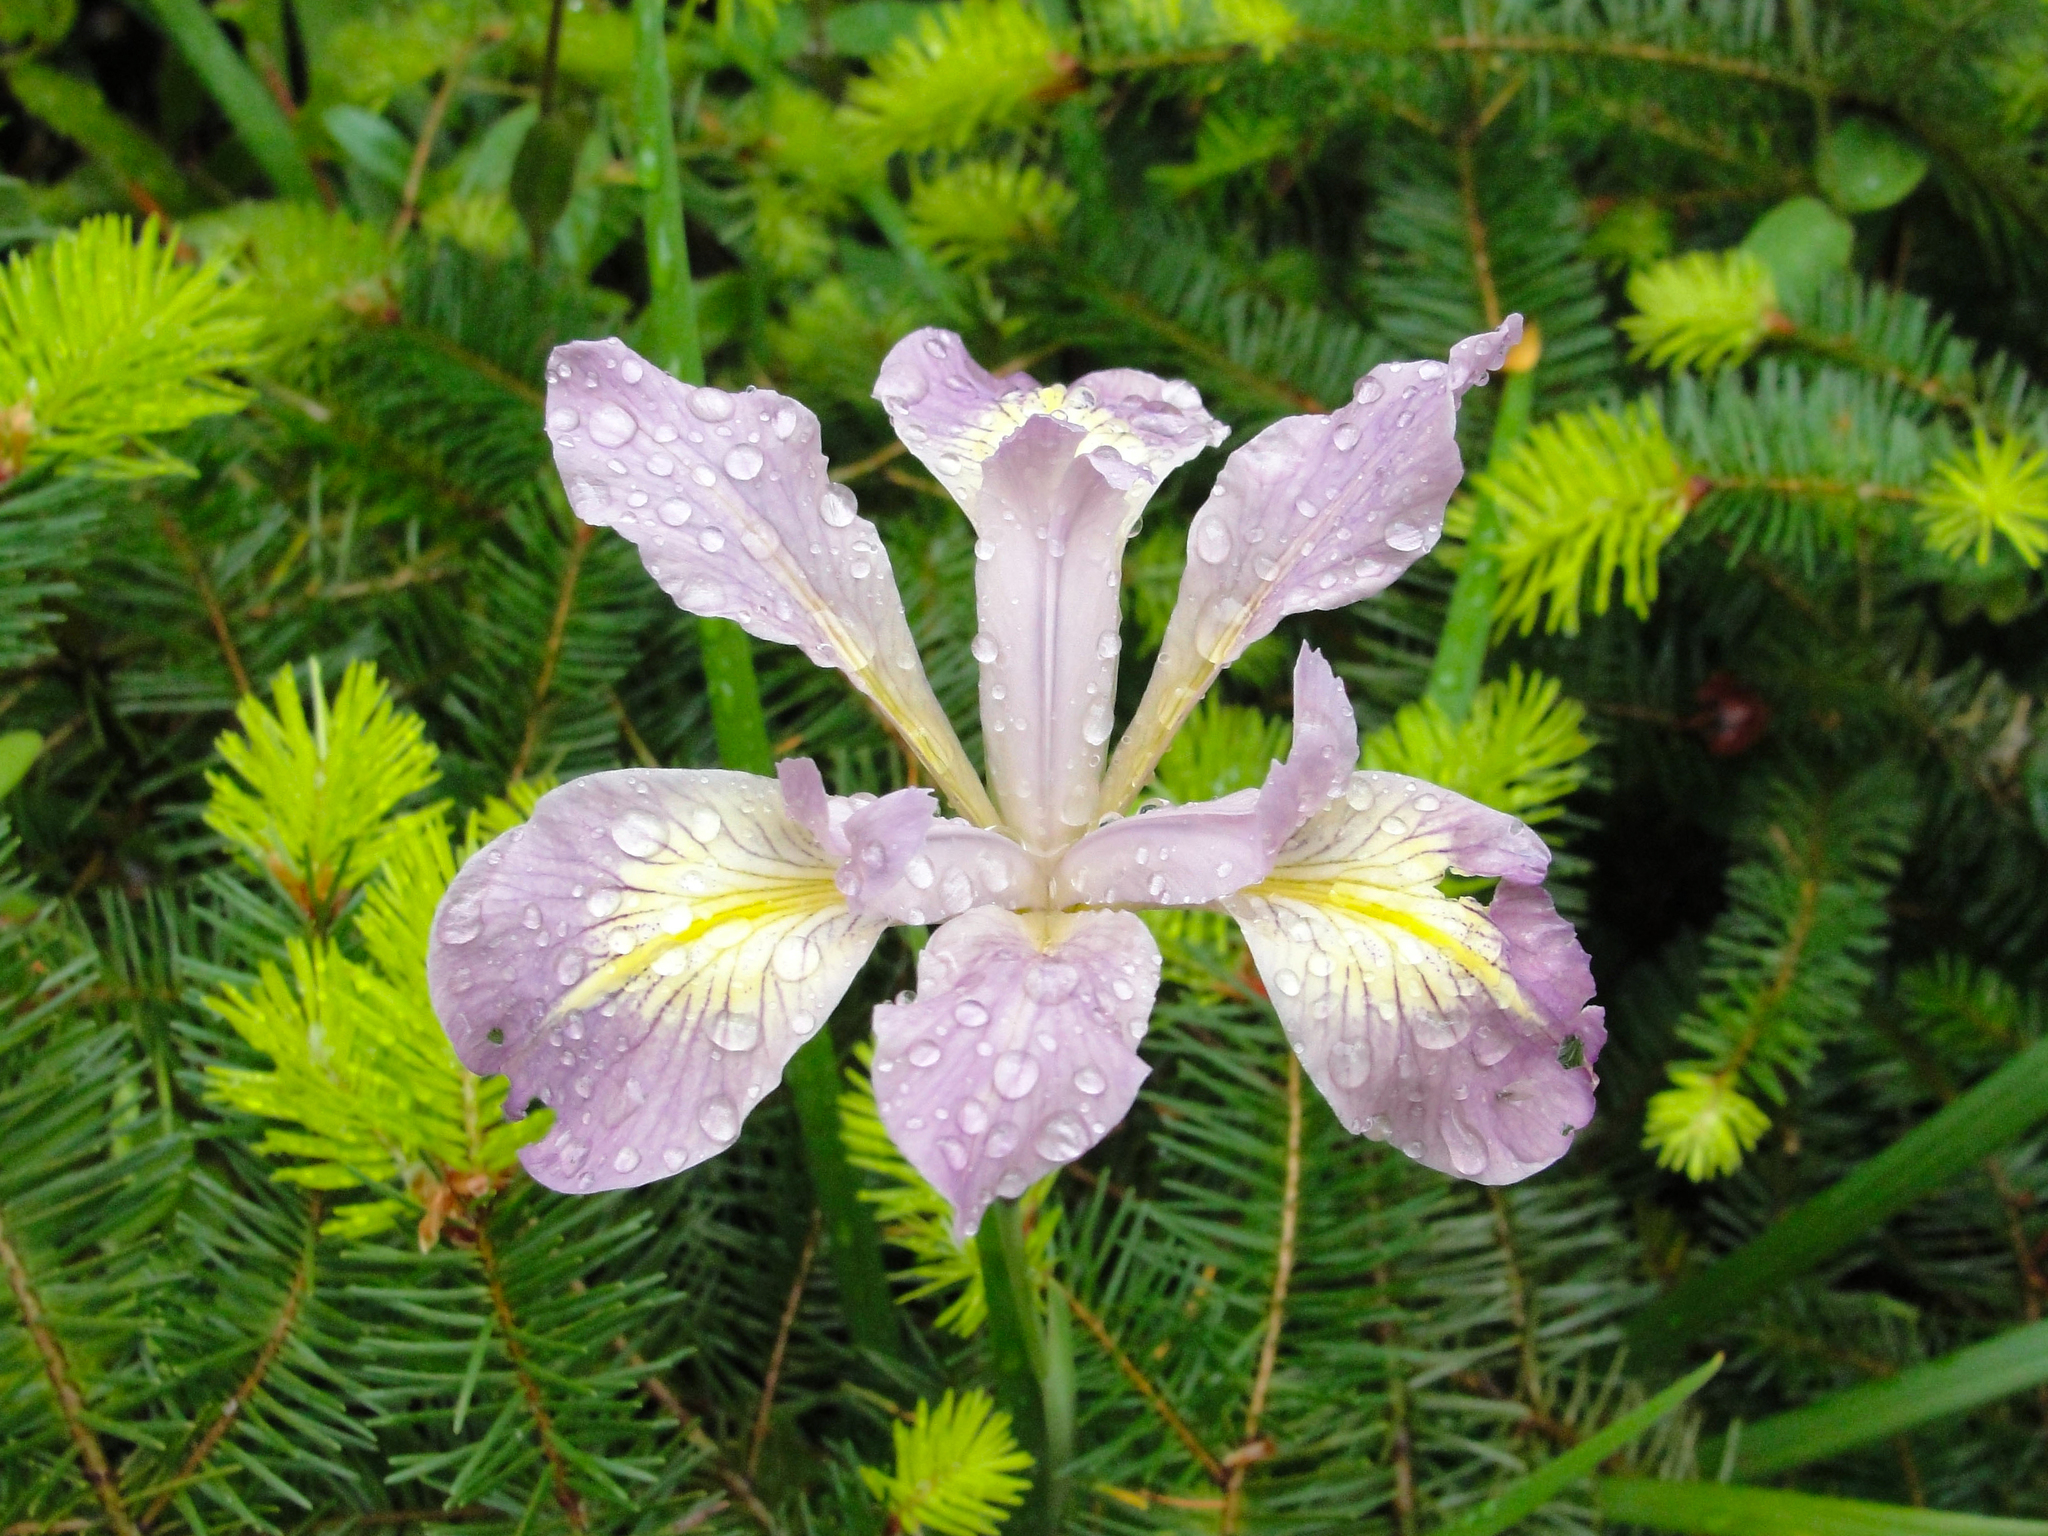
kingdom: Plantae
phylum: Tracheophyta
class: Liliopsida
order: Asparagales
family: Iridaceae
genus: Iris
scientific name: Iris douglasiana
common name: Marin iris
